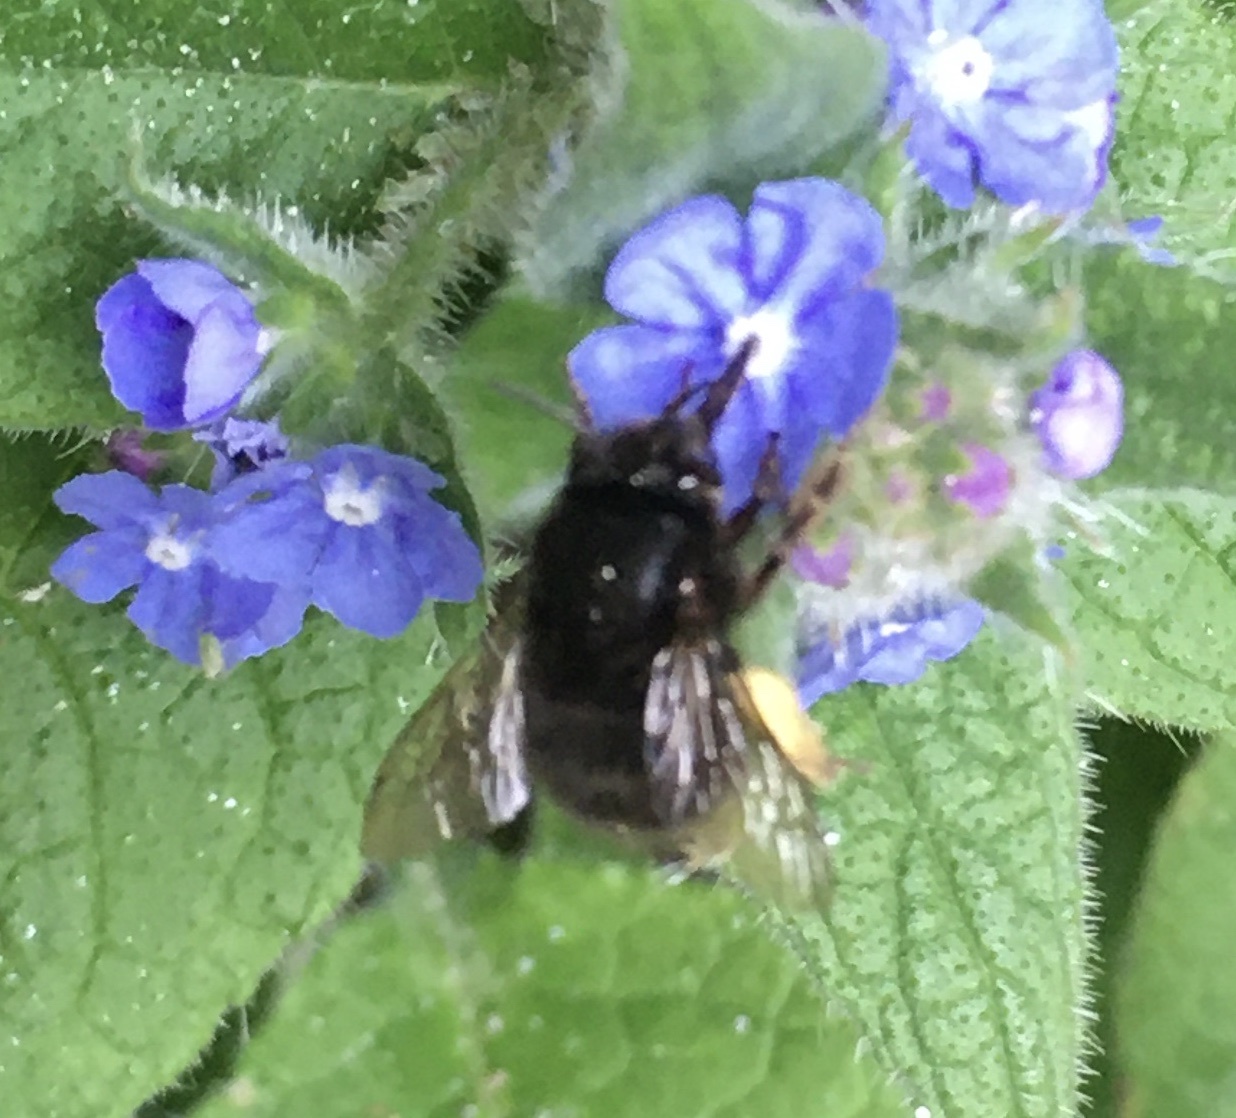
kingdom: Animalia
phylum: Arthropoda
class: Insecta
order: Hymenoptera
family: Apidae
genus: Anthophora
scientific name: Anthophora plumipes
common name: Hairy-footed flower bee
